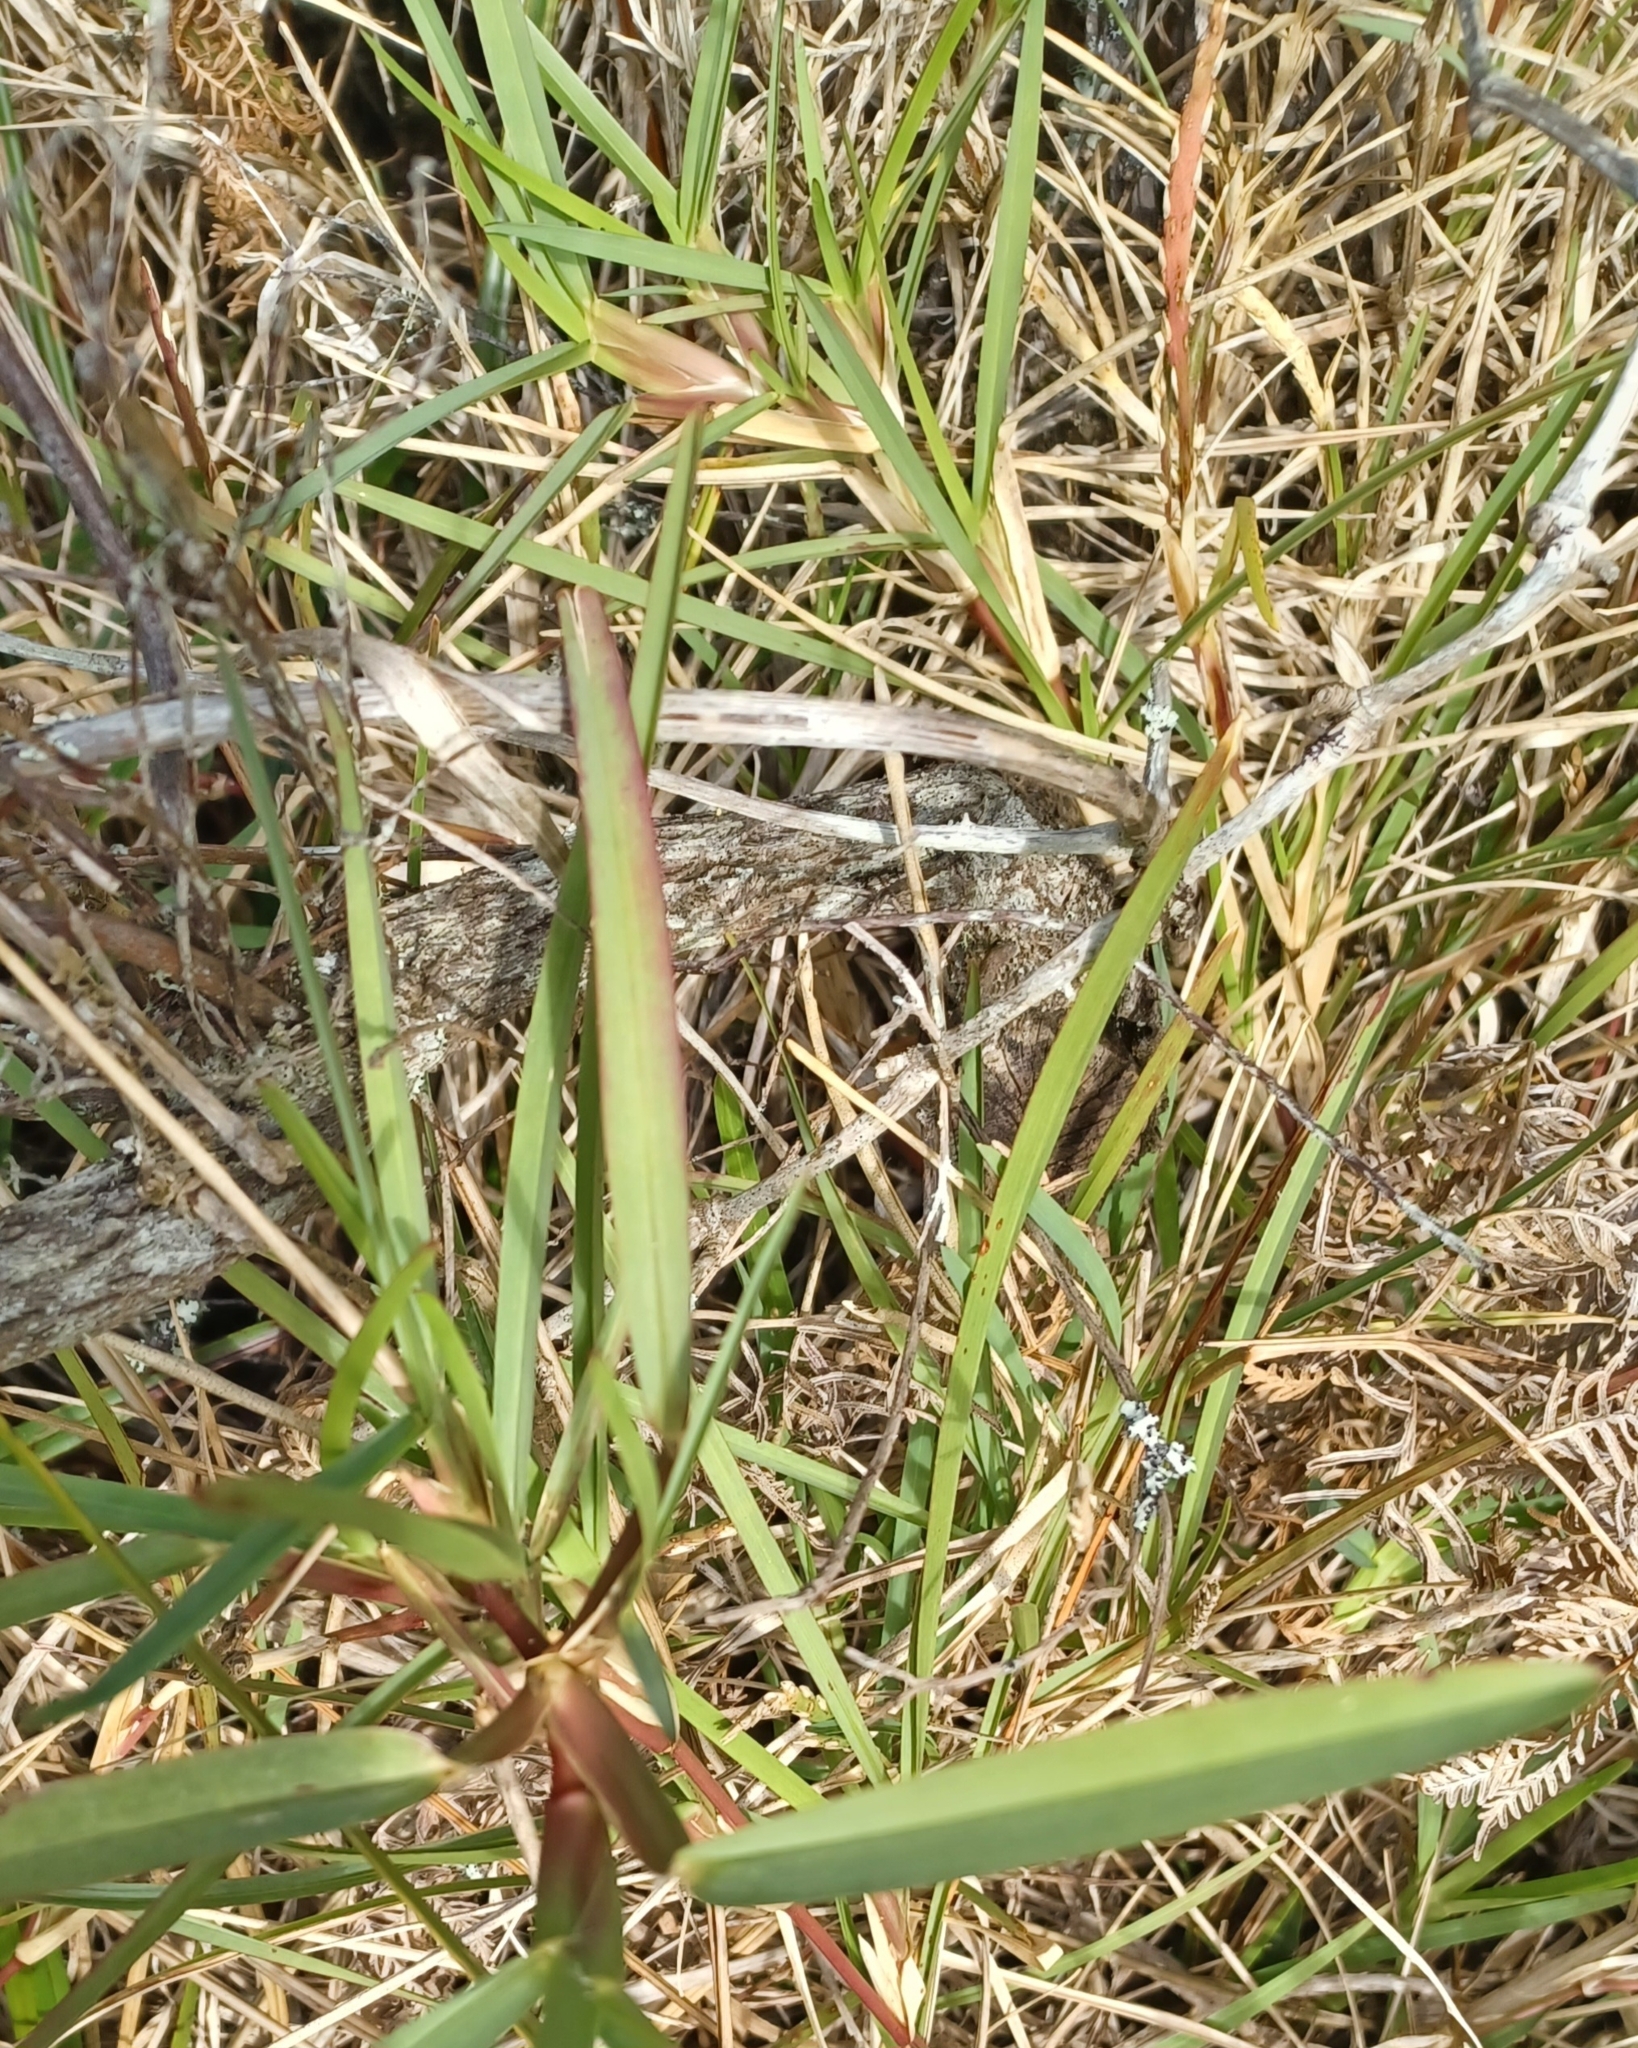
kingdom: Plantae
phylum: Tracheophyta
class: Liliopsida
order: Poales
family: Poaceae
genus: Stenotaphrum
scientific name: Stenotaphrum secundatum
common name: St. augustine grass
